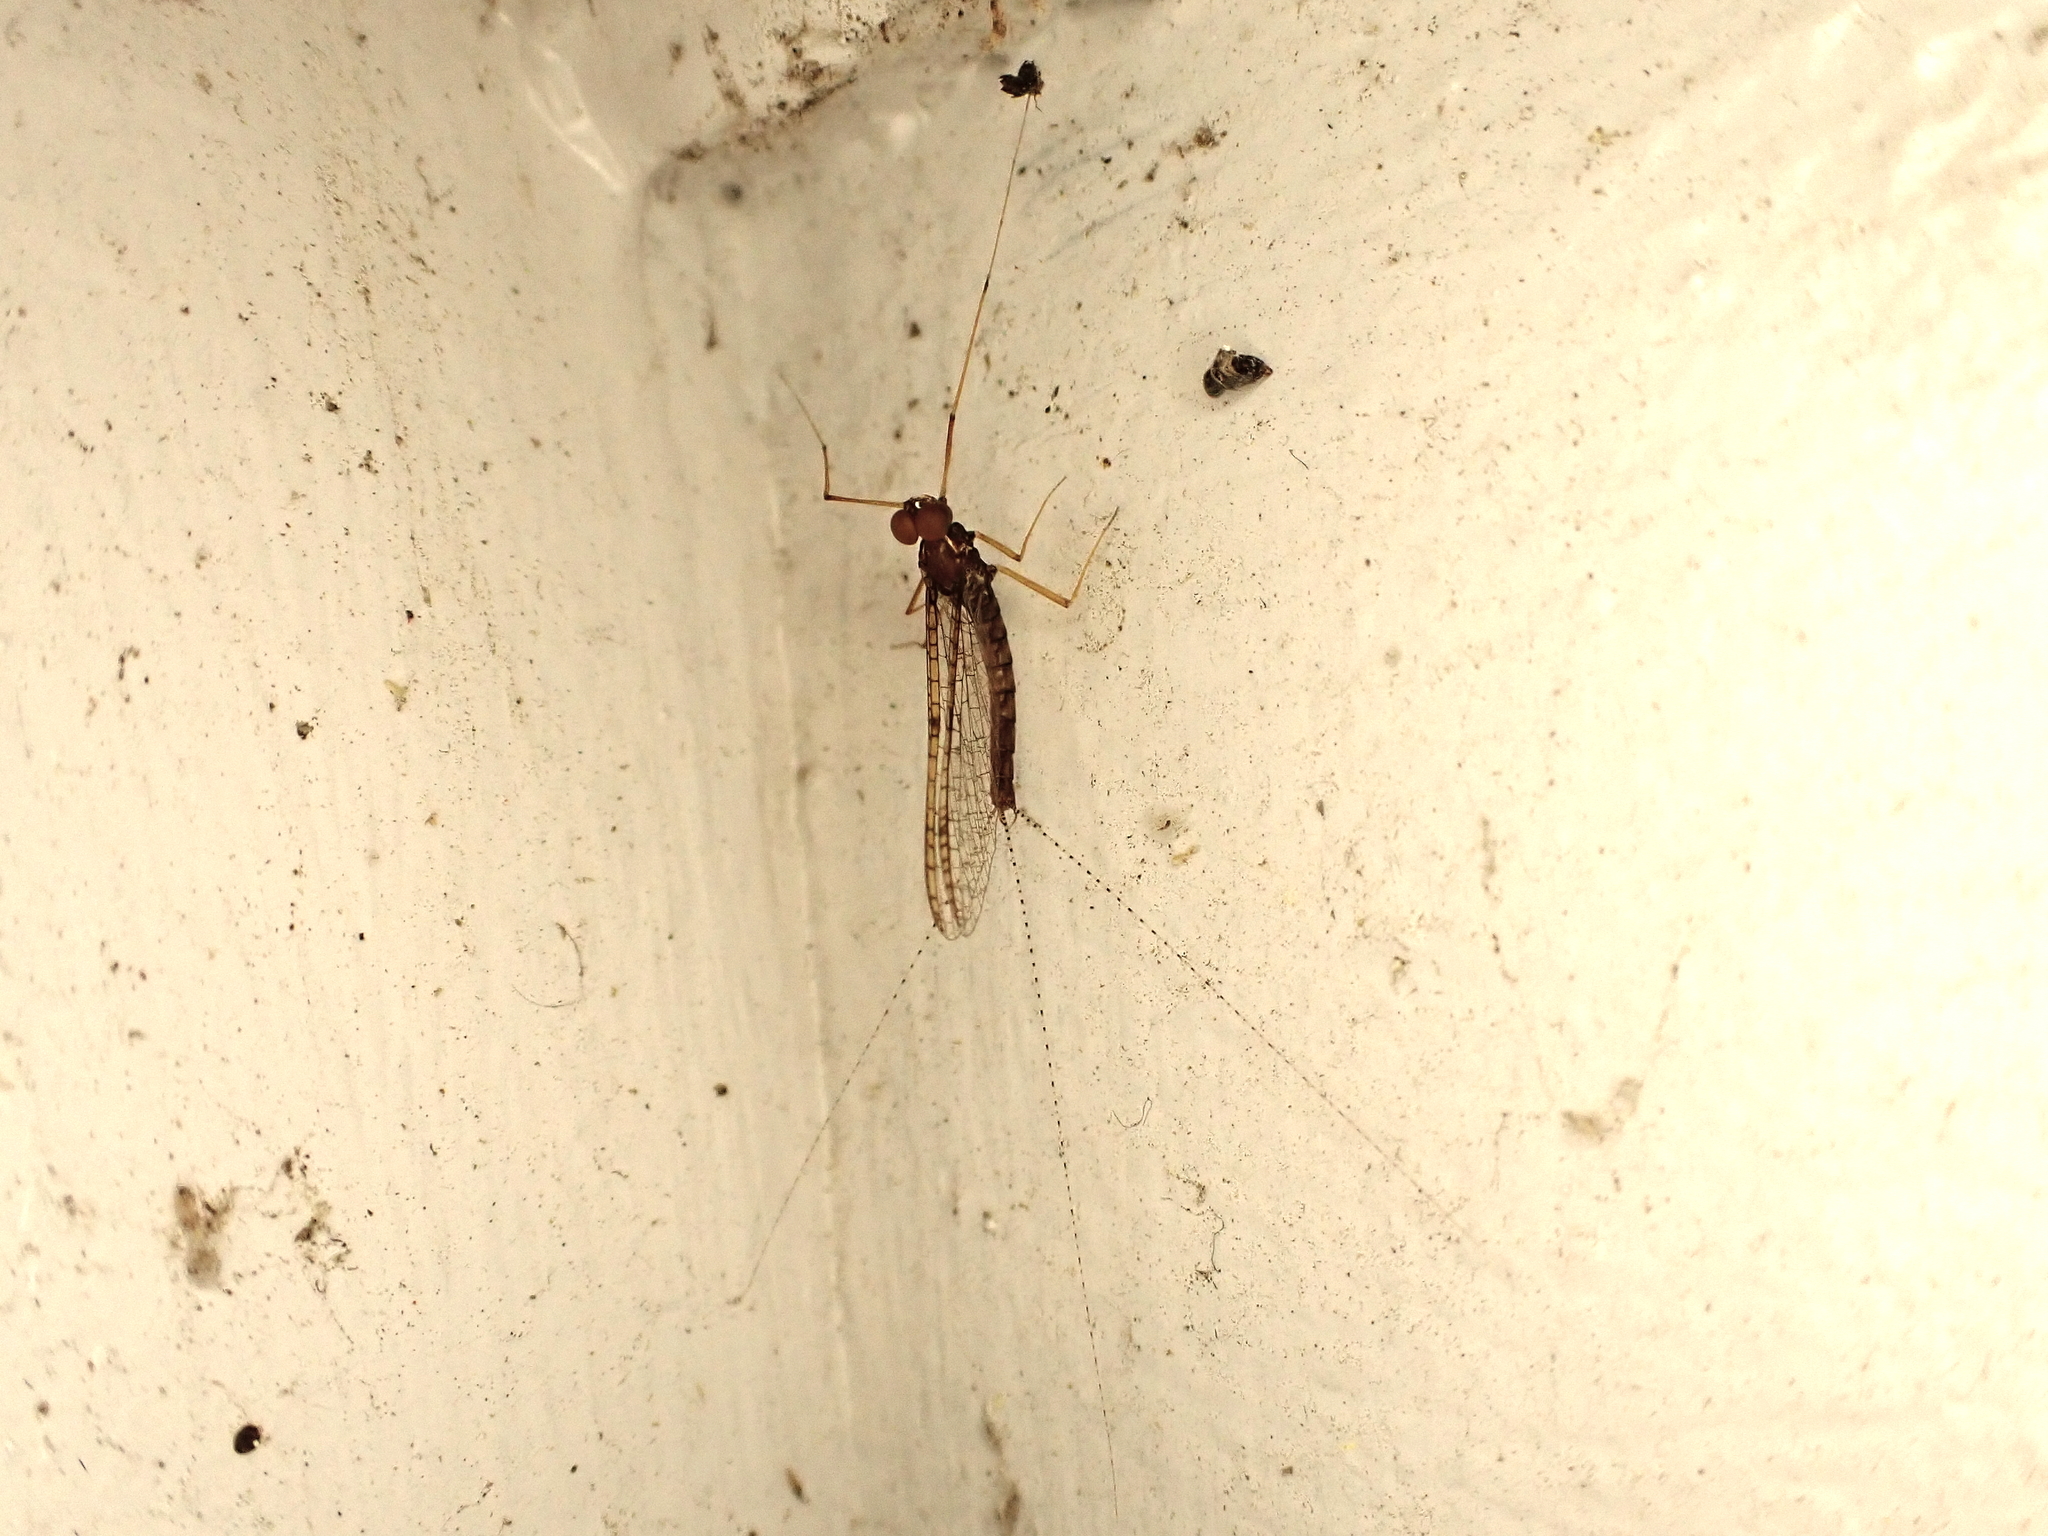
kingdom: Animalia
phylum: Arthropoda
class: Insecta
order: Ephemeroptera
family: Leptophlebiidae
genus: Zephlebia
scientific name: Zephlebia
